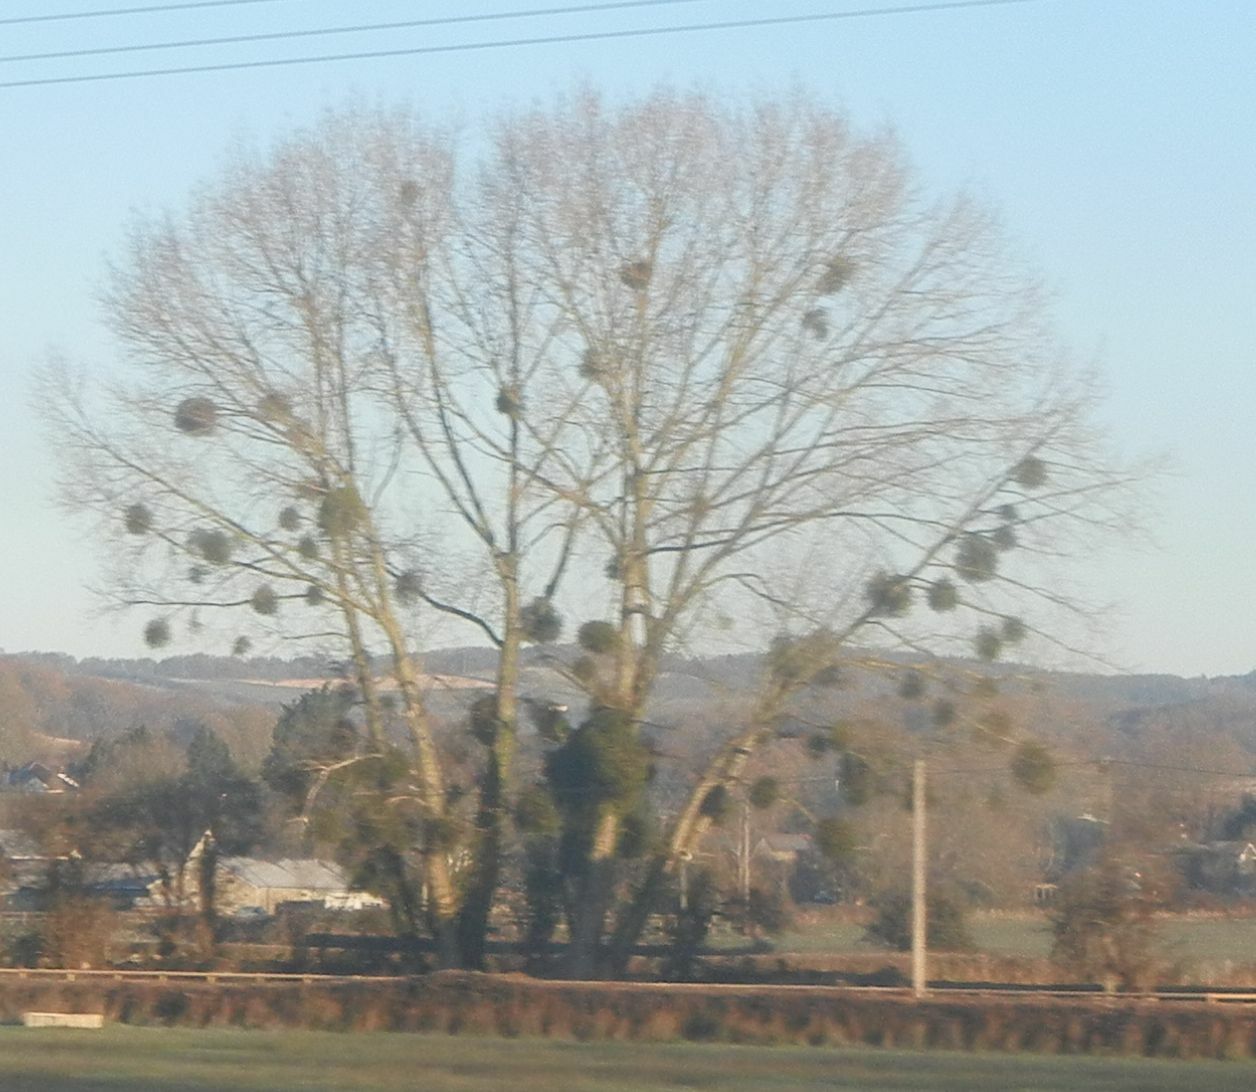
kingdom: Plantae
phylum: Tracheophyta
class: Magnoliopsida
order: Santalales
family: Viscaceae
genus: Viscum
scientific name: Viscum album
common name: Mistletoe
